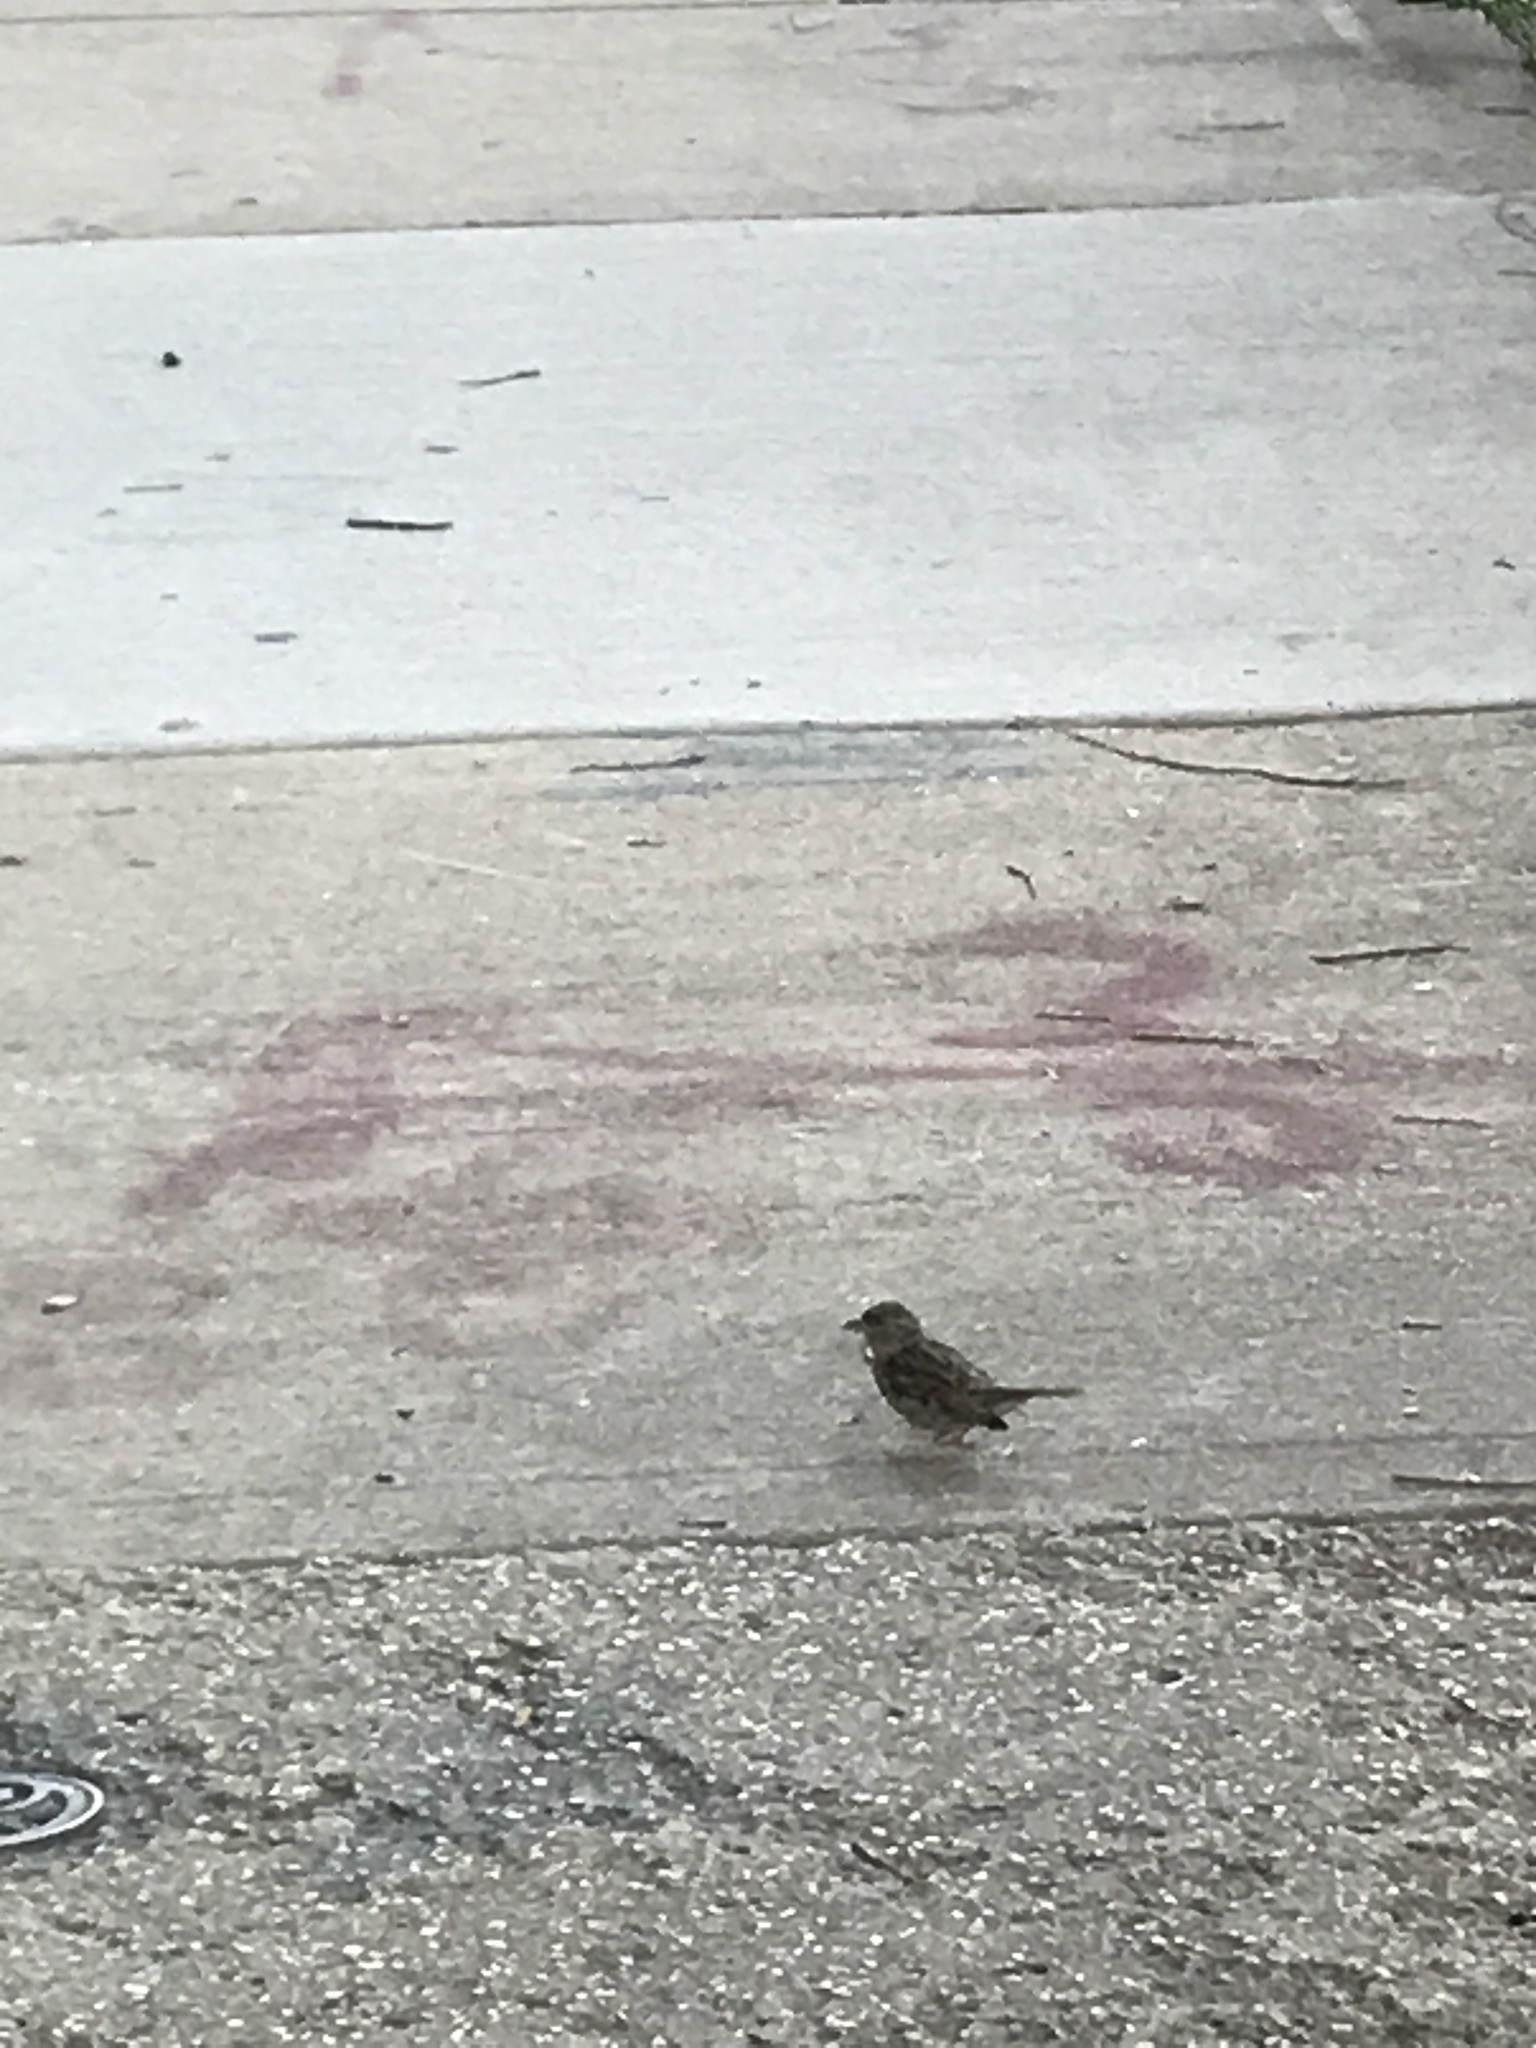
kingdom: Animalia
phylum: Chordata
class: Aves
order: Passeriformes
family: Passeridae
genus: Passer
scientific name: Passer domesticus
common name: House sparrow
